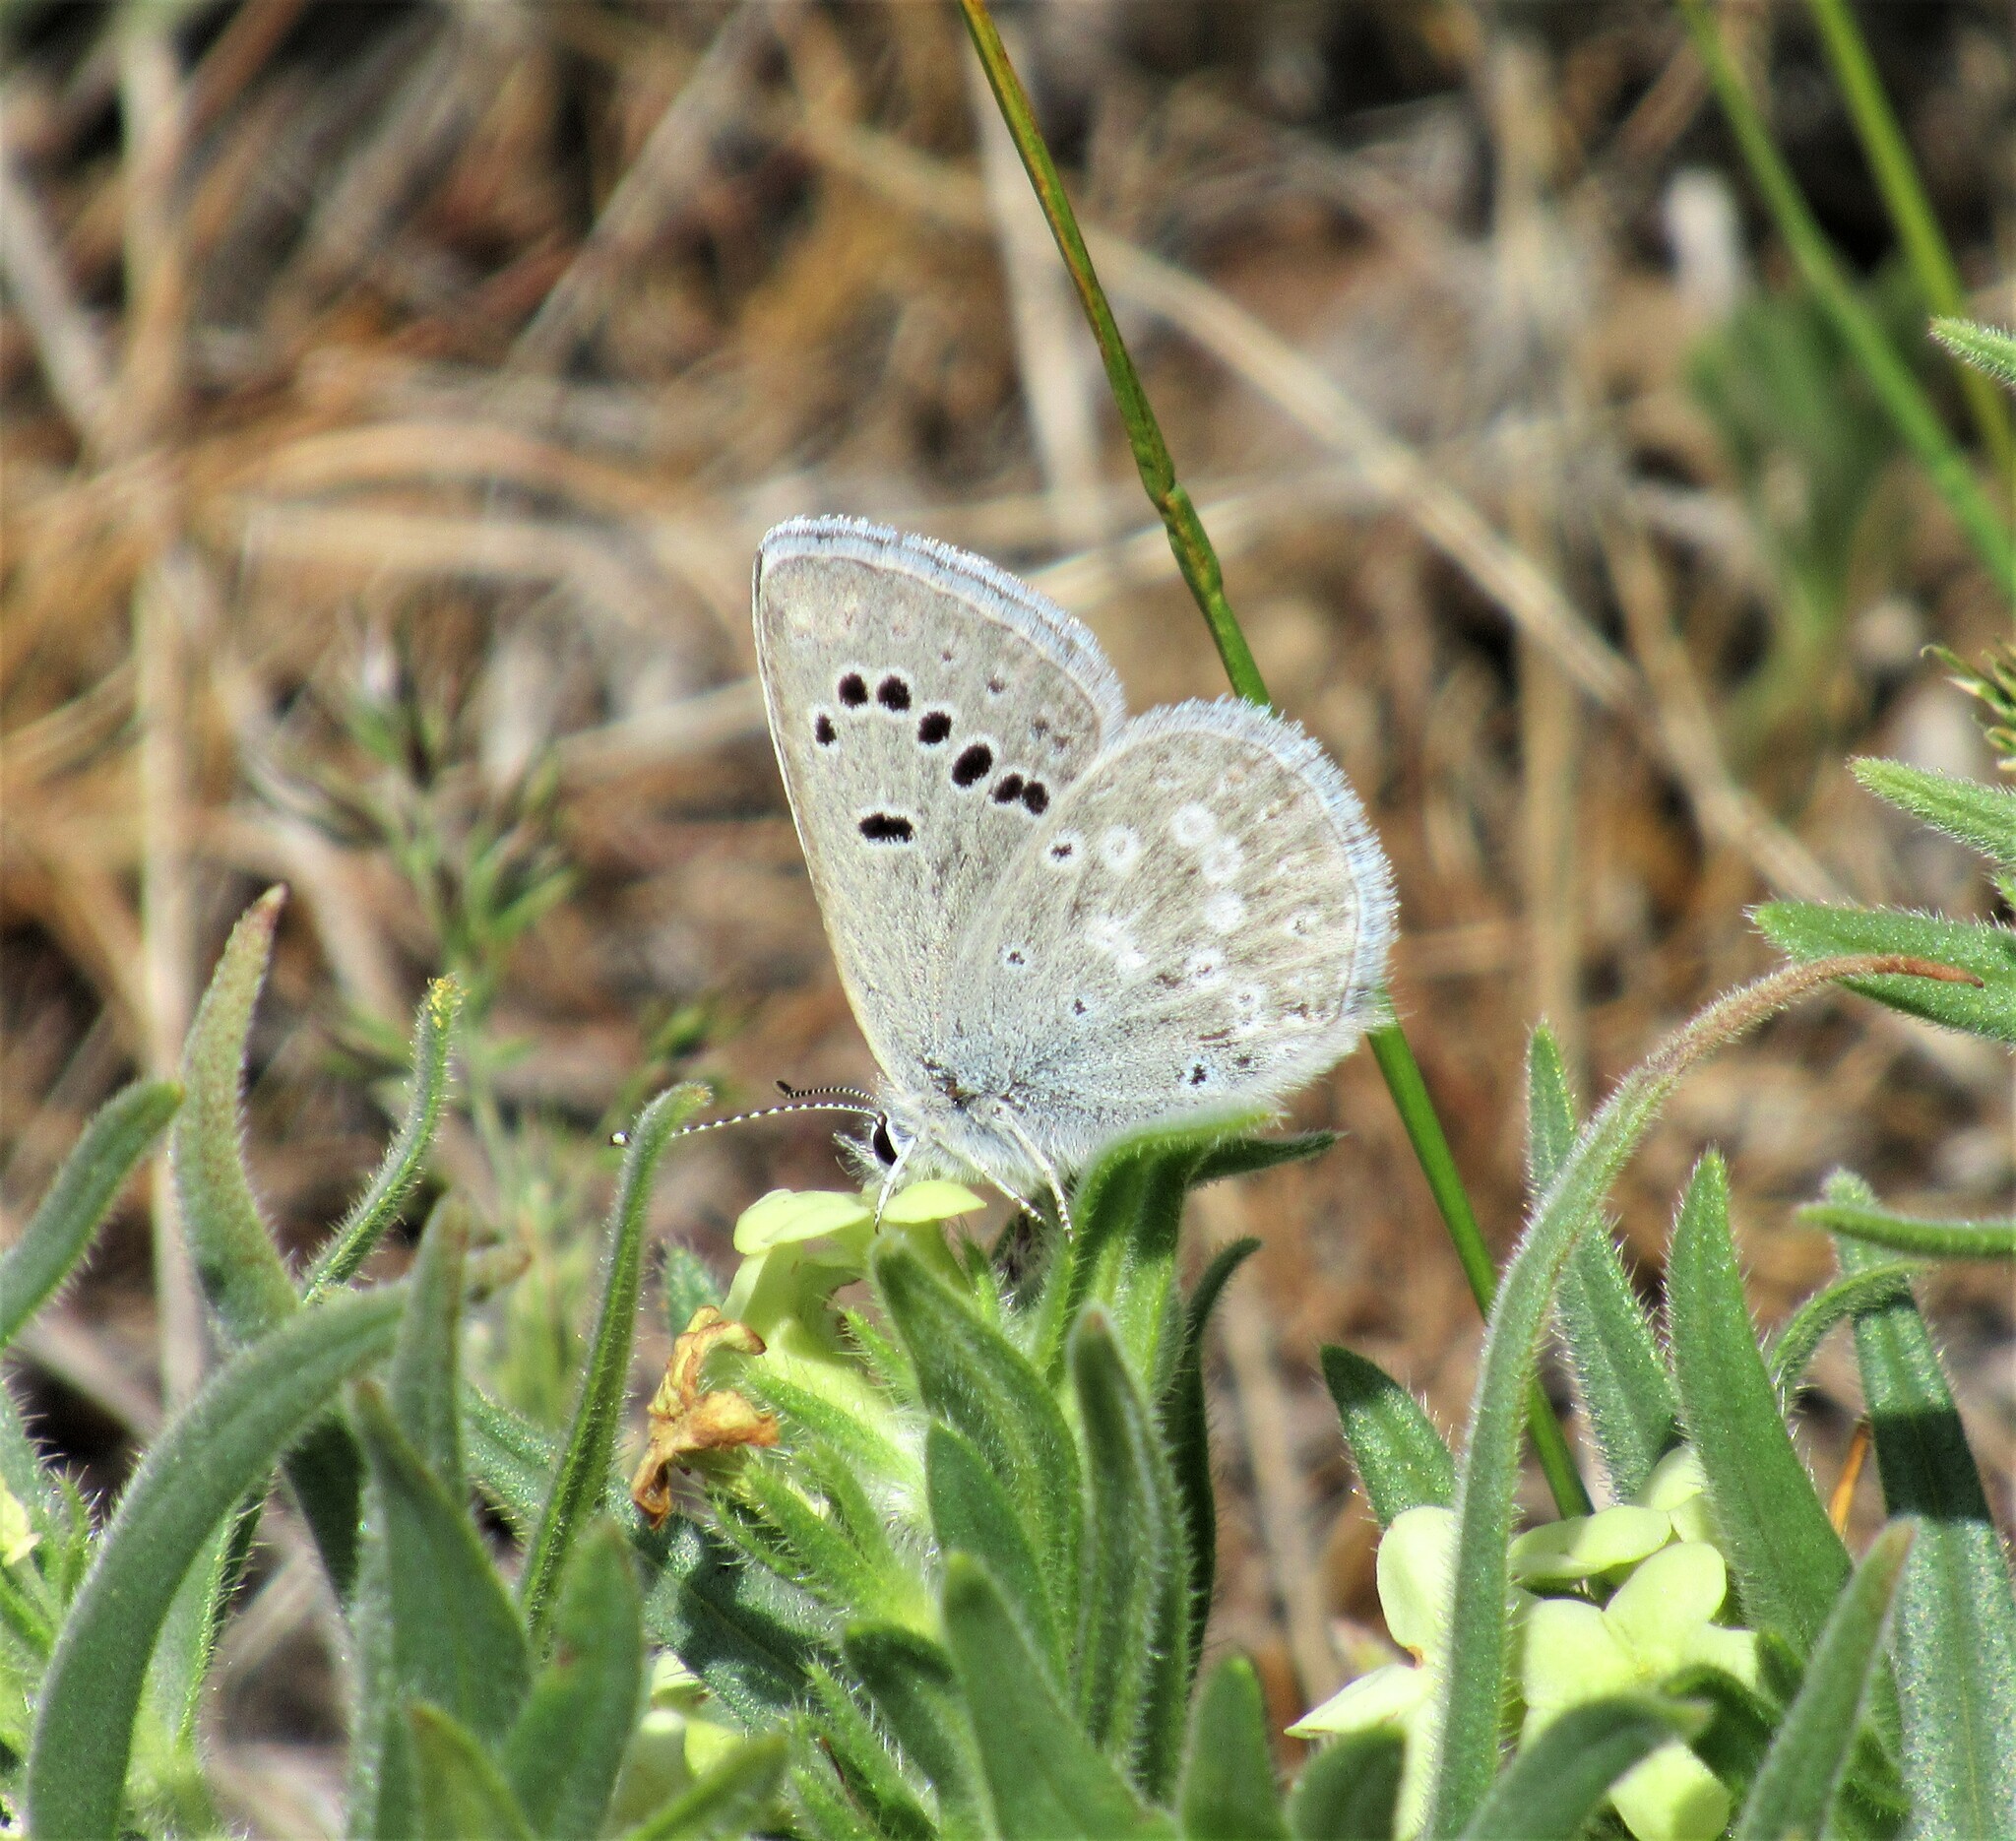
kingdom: Animalia
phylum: Arthropoda
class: Insecta
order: Lepidoptera
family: Lycaenidae
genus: Icaricia
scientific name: Icaricia icarioides
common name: Boisduval's blue
